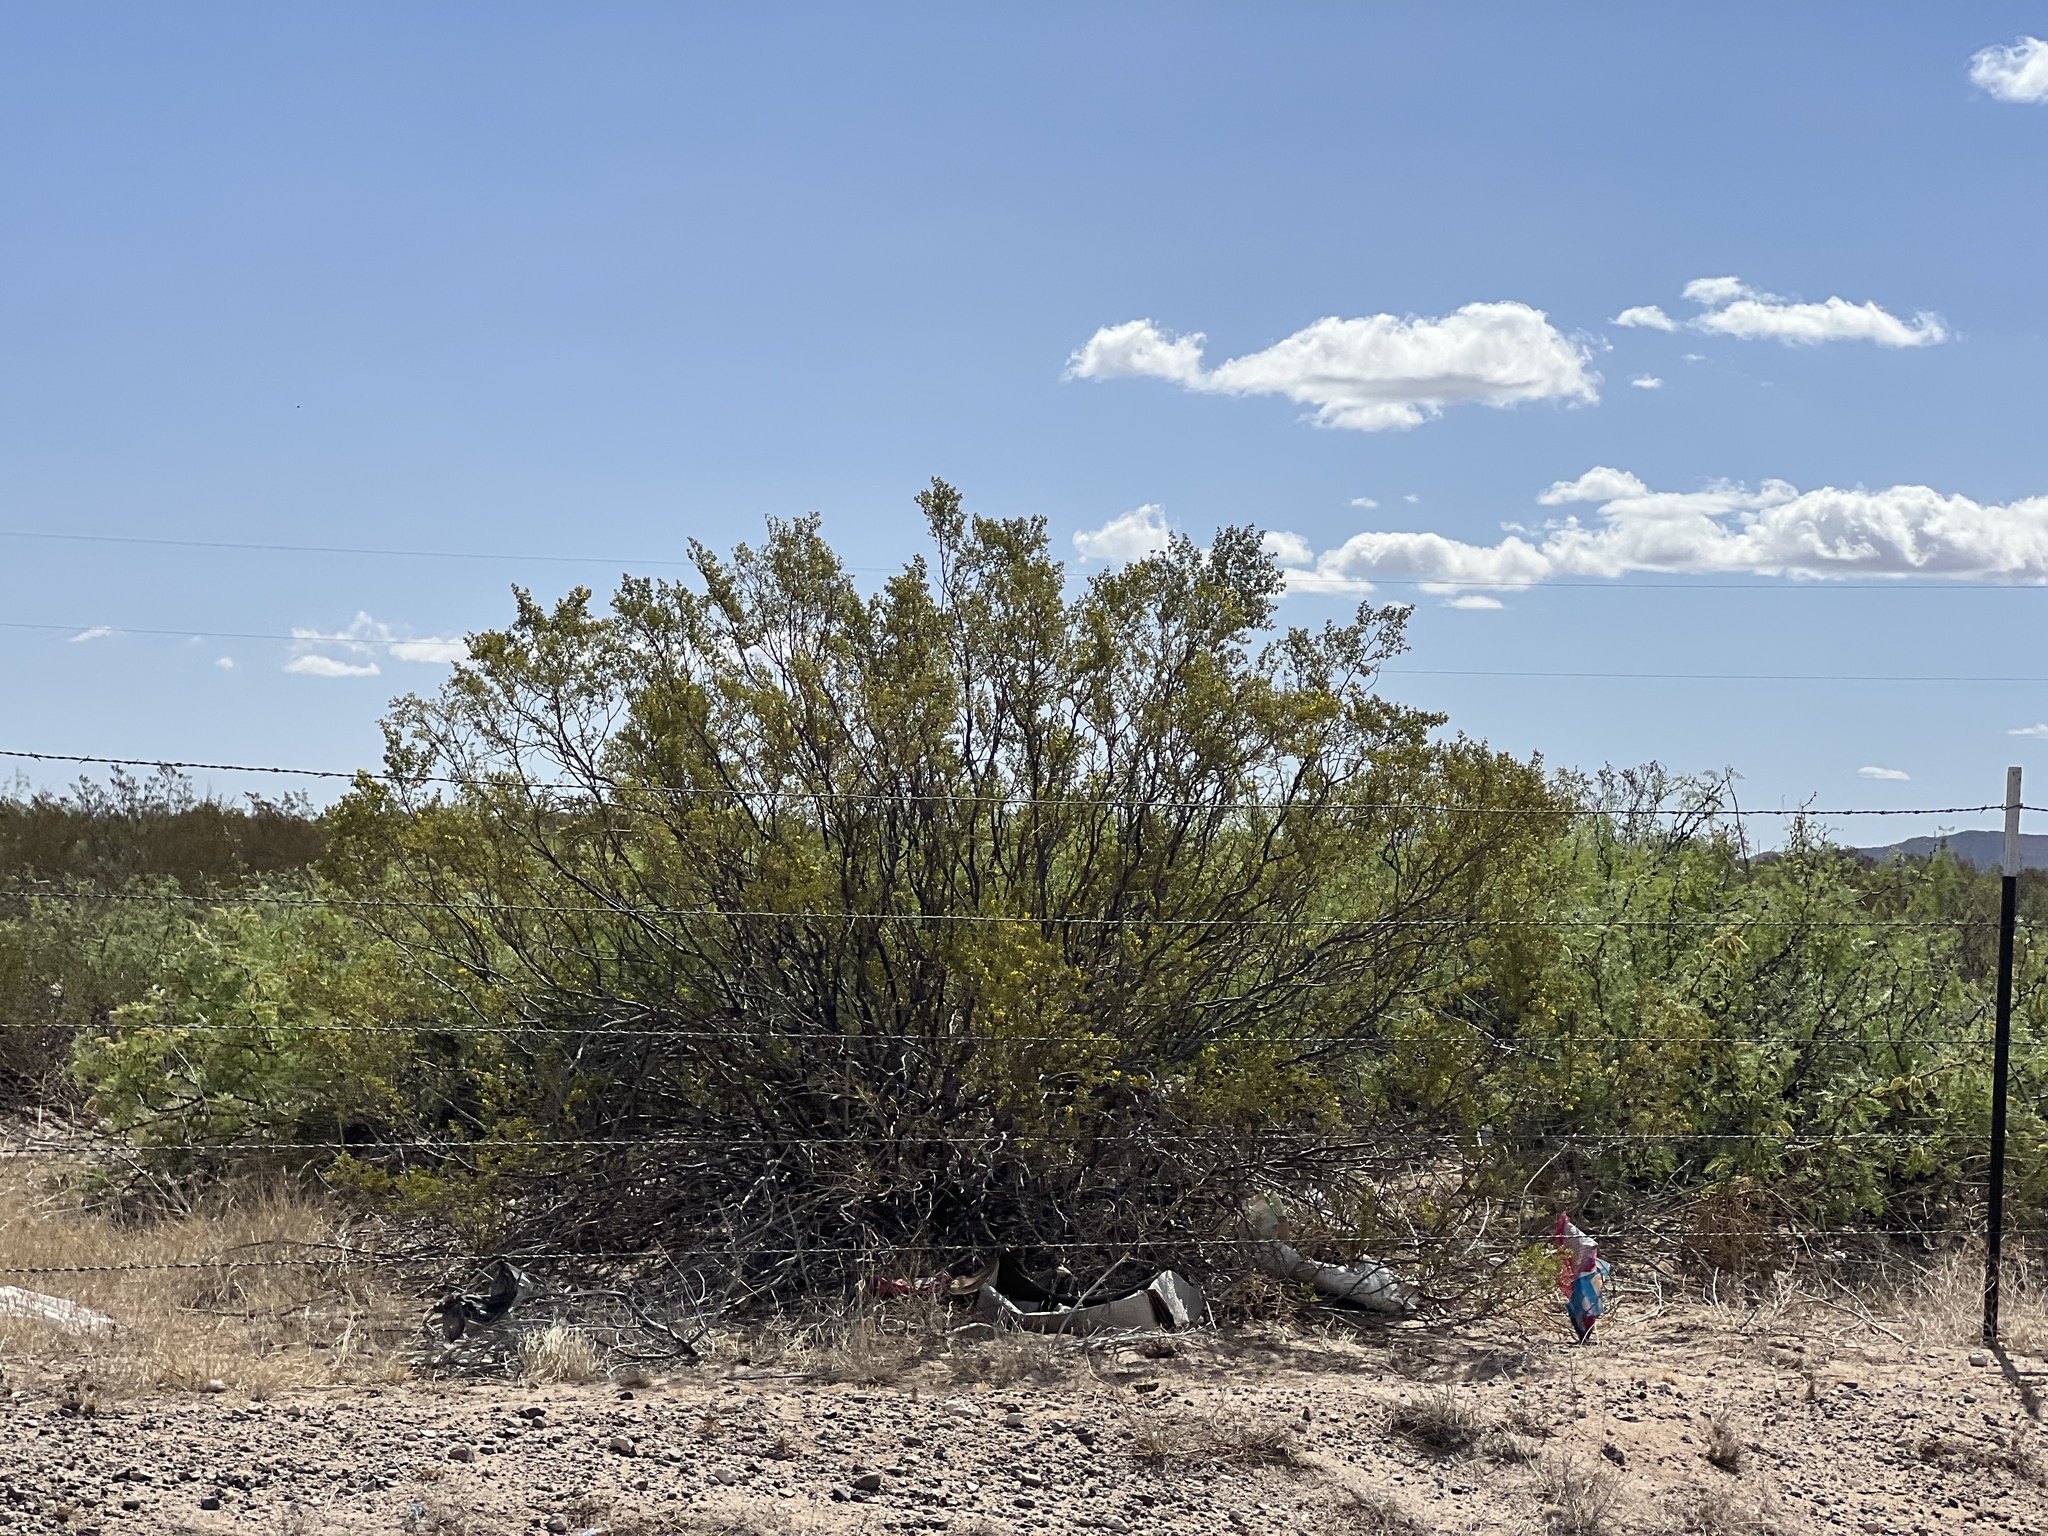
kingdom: Plantae
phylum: Tracheophyta
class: Magnoliopsida
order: Zygophyllales
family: Zygophyllaceae
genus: Larrea
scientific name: Larrea tridentata
